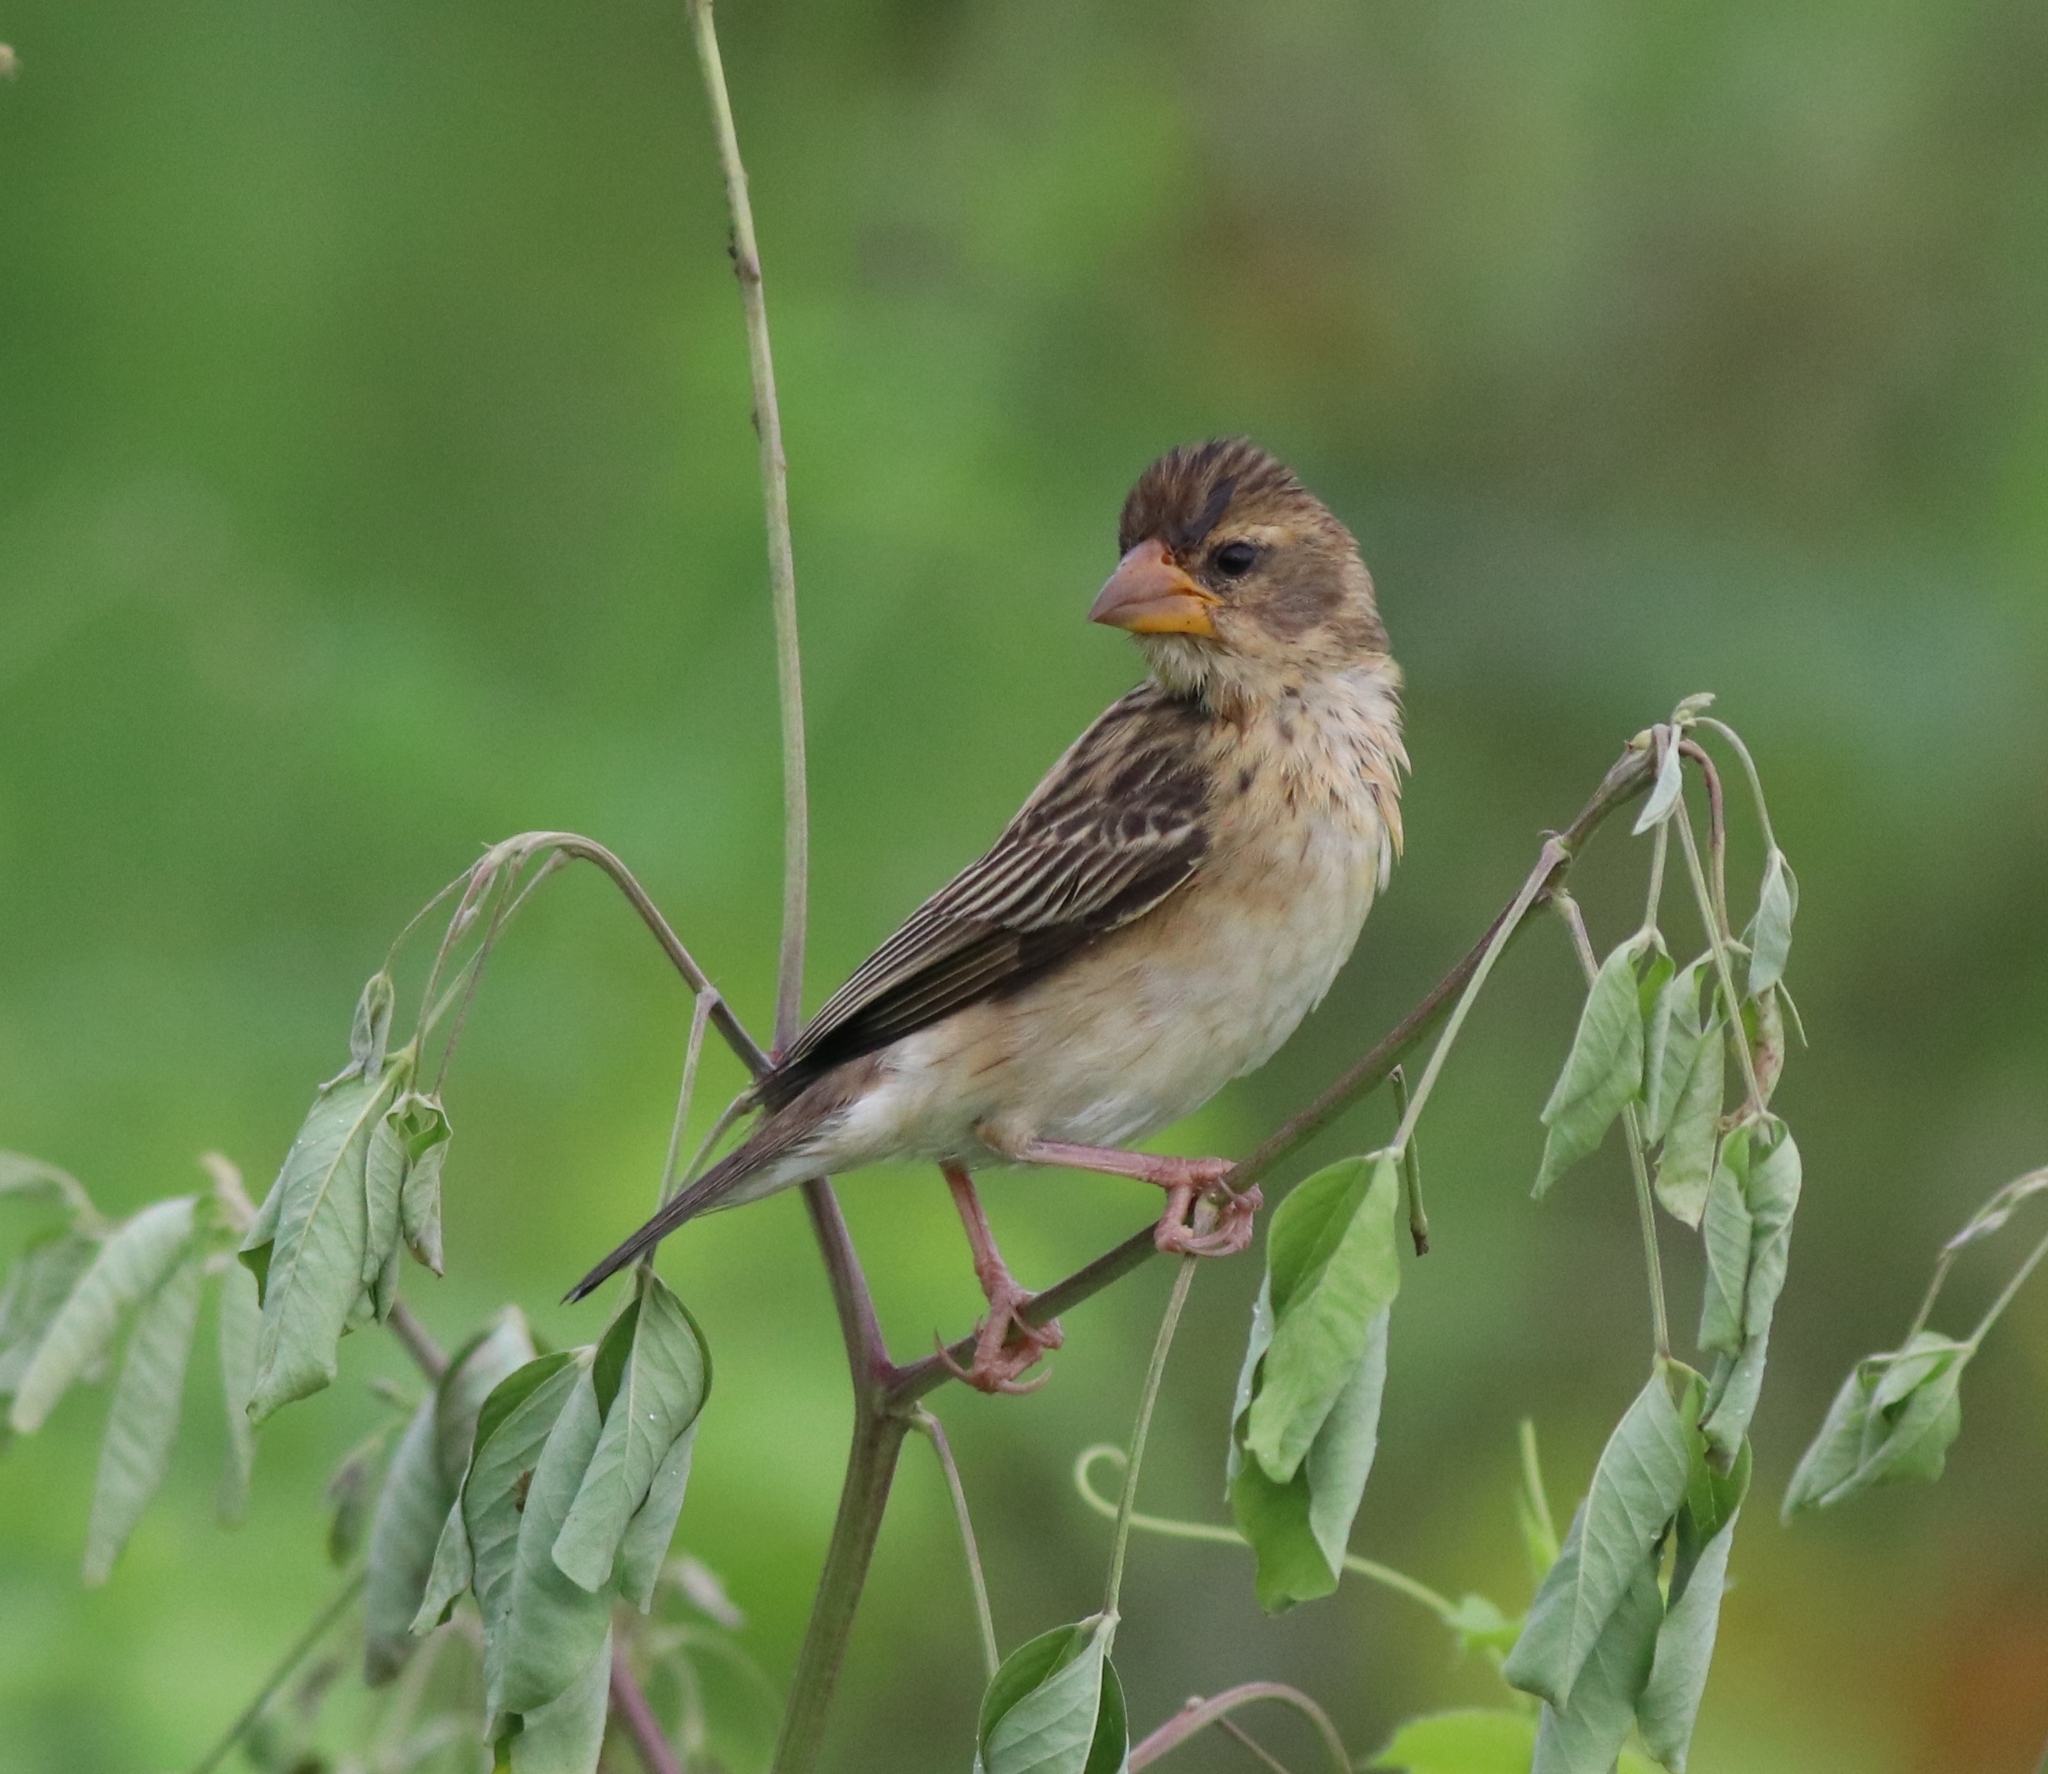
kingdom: Animalia
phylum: Chordata
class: Aves
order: Passeriformes
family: Ploceidae
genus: Ploceus
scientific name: Ploceus philippinus
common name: Baya weaver
